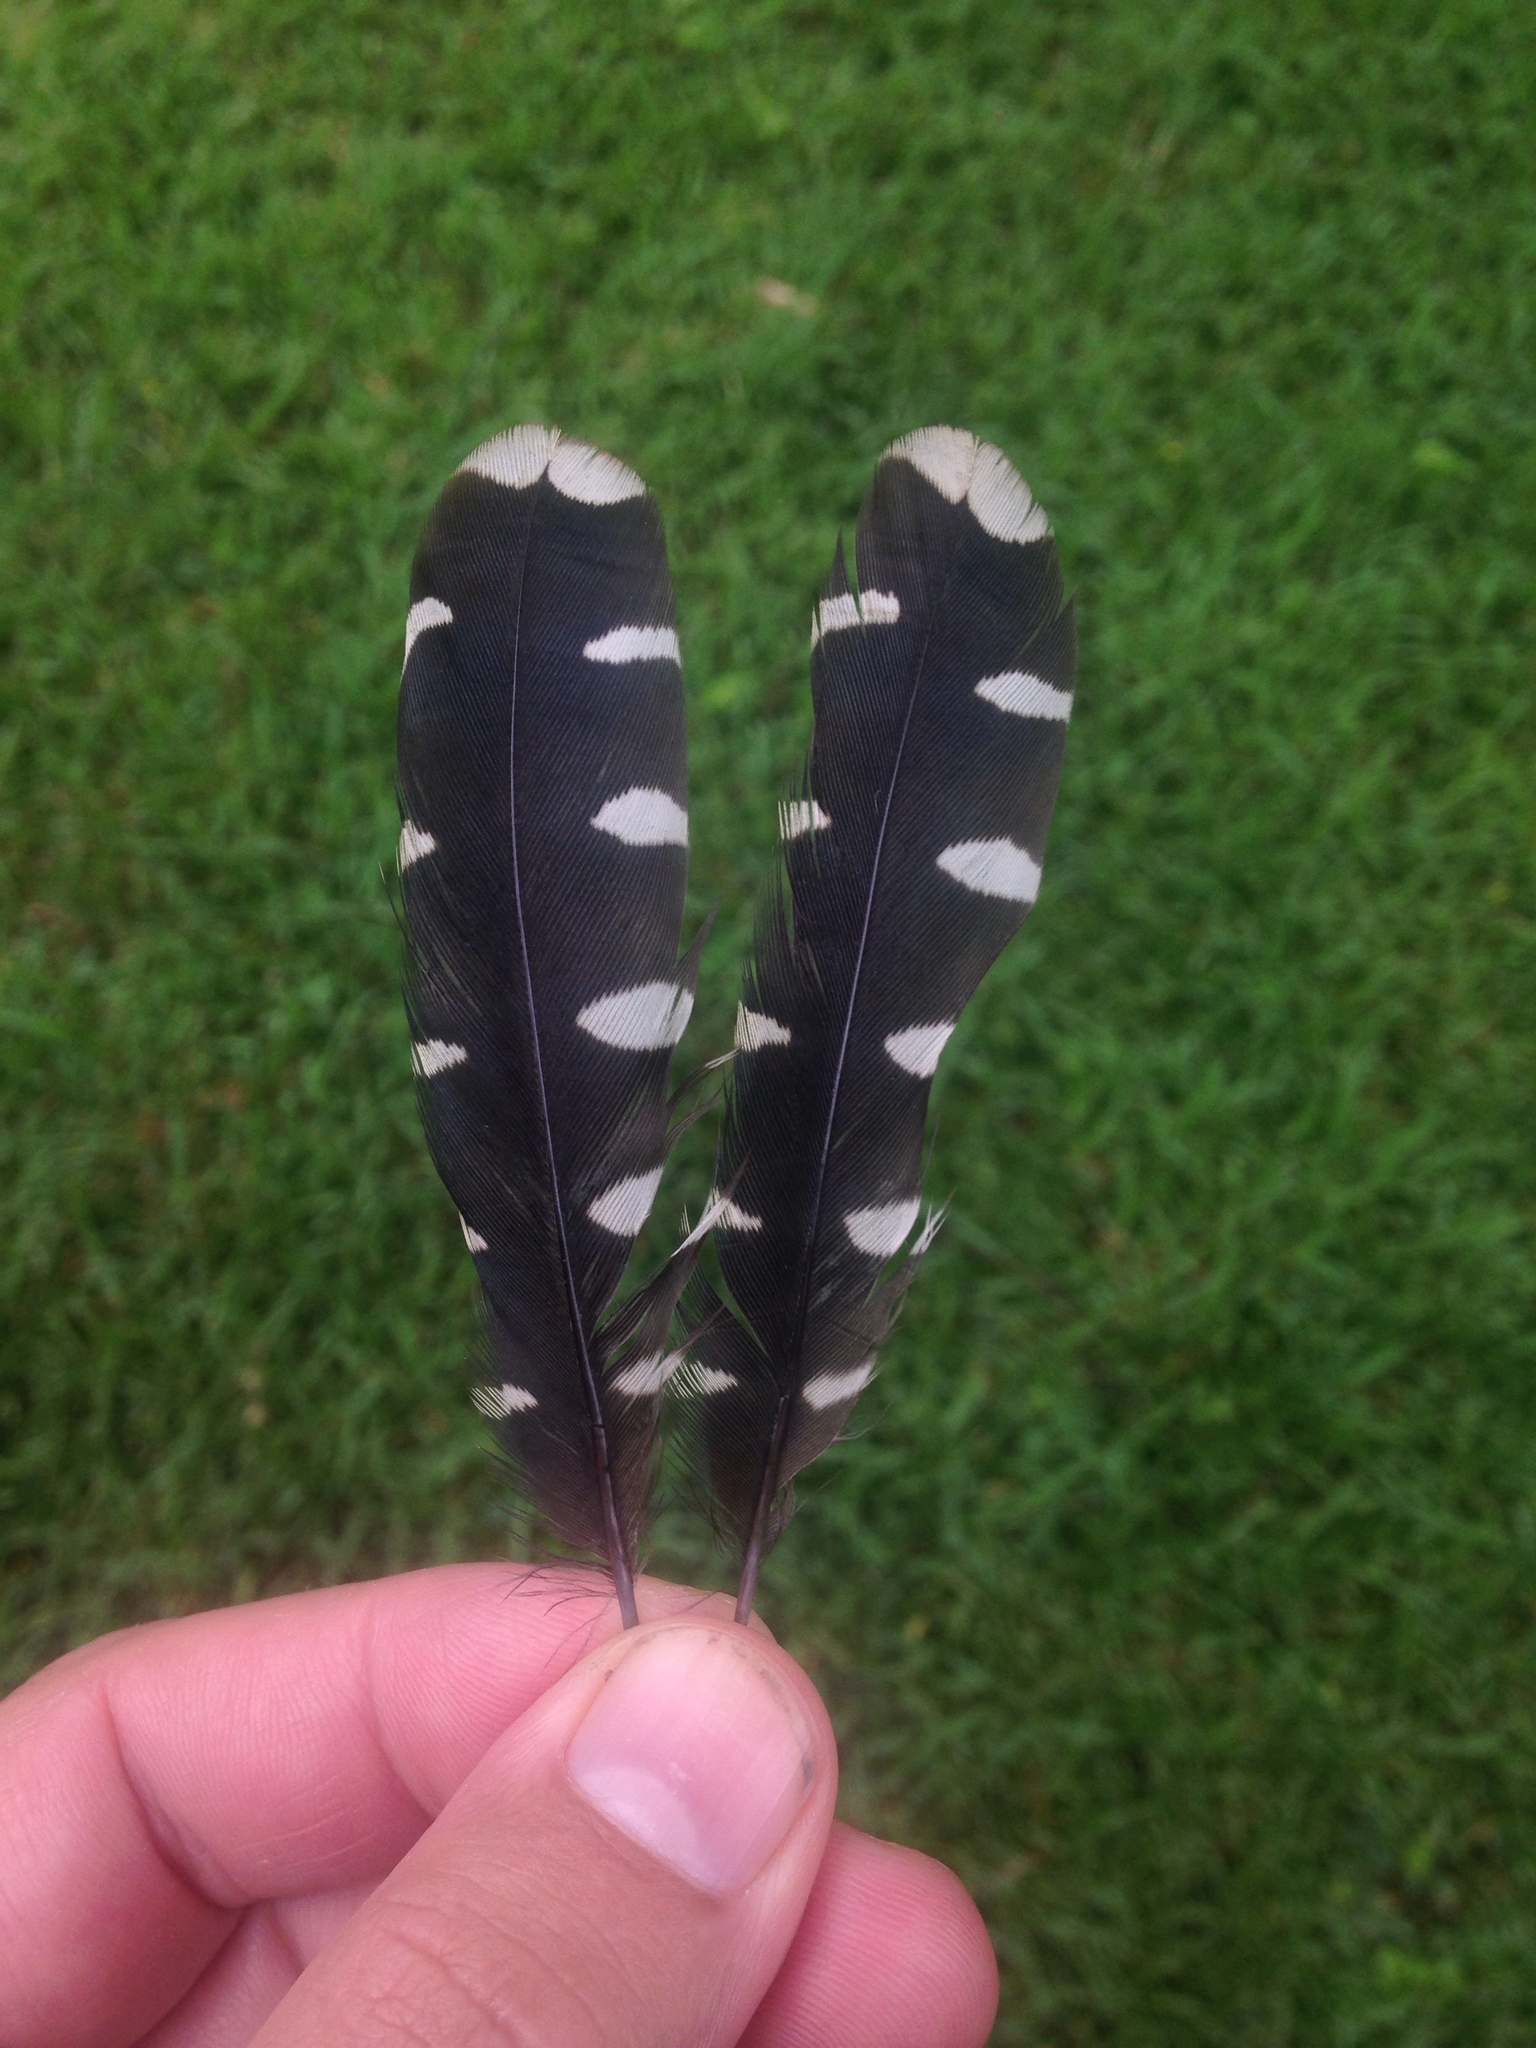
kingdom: Animalia
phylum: Chordata
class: Aves
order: Piciformes
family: Lybiidae
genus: Trachyphonus
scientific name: Trachyphonus vaillantii
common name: Crested barbet
